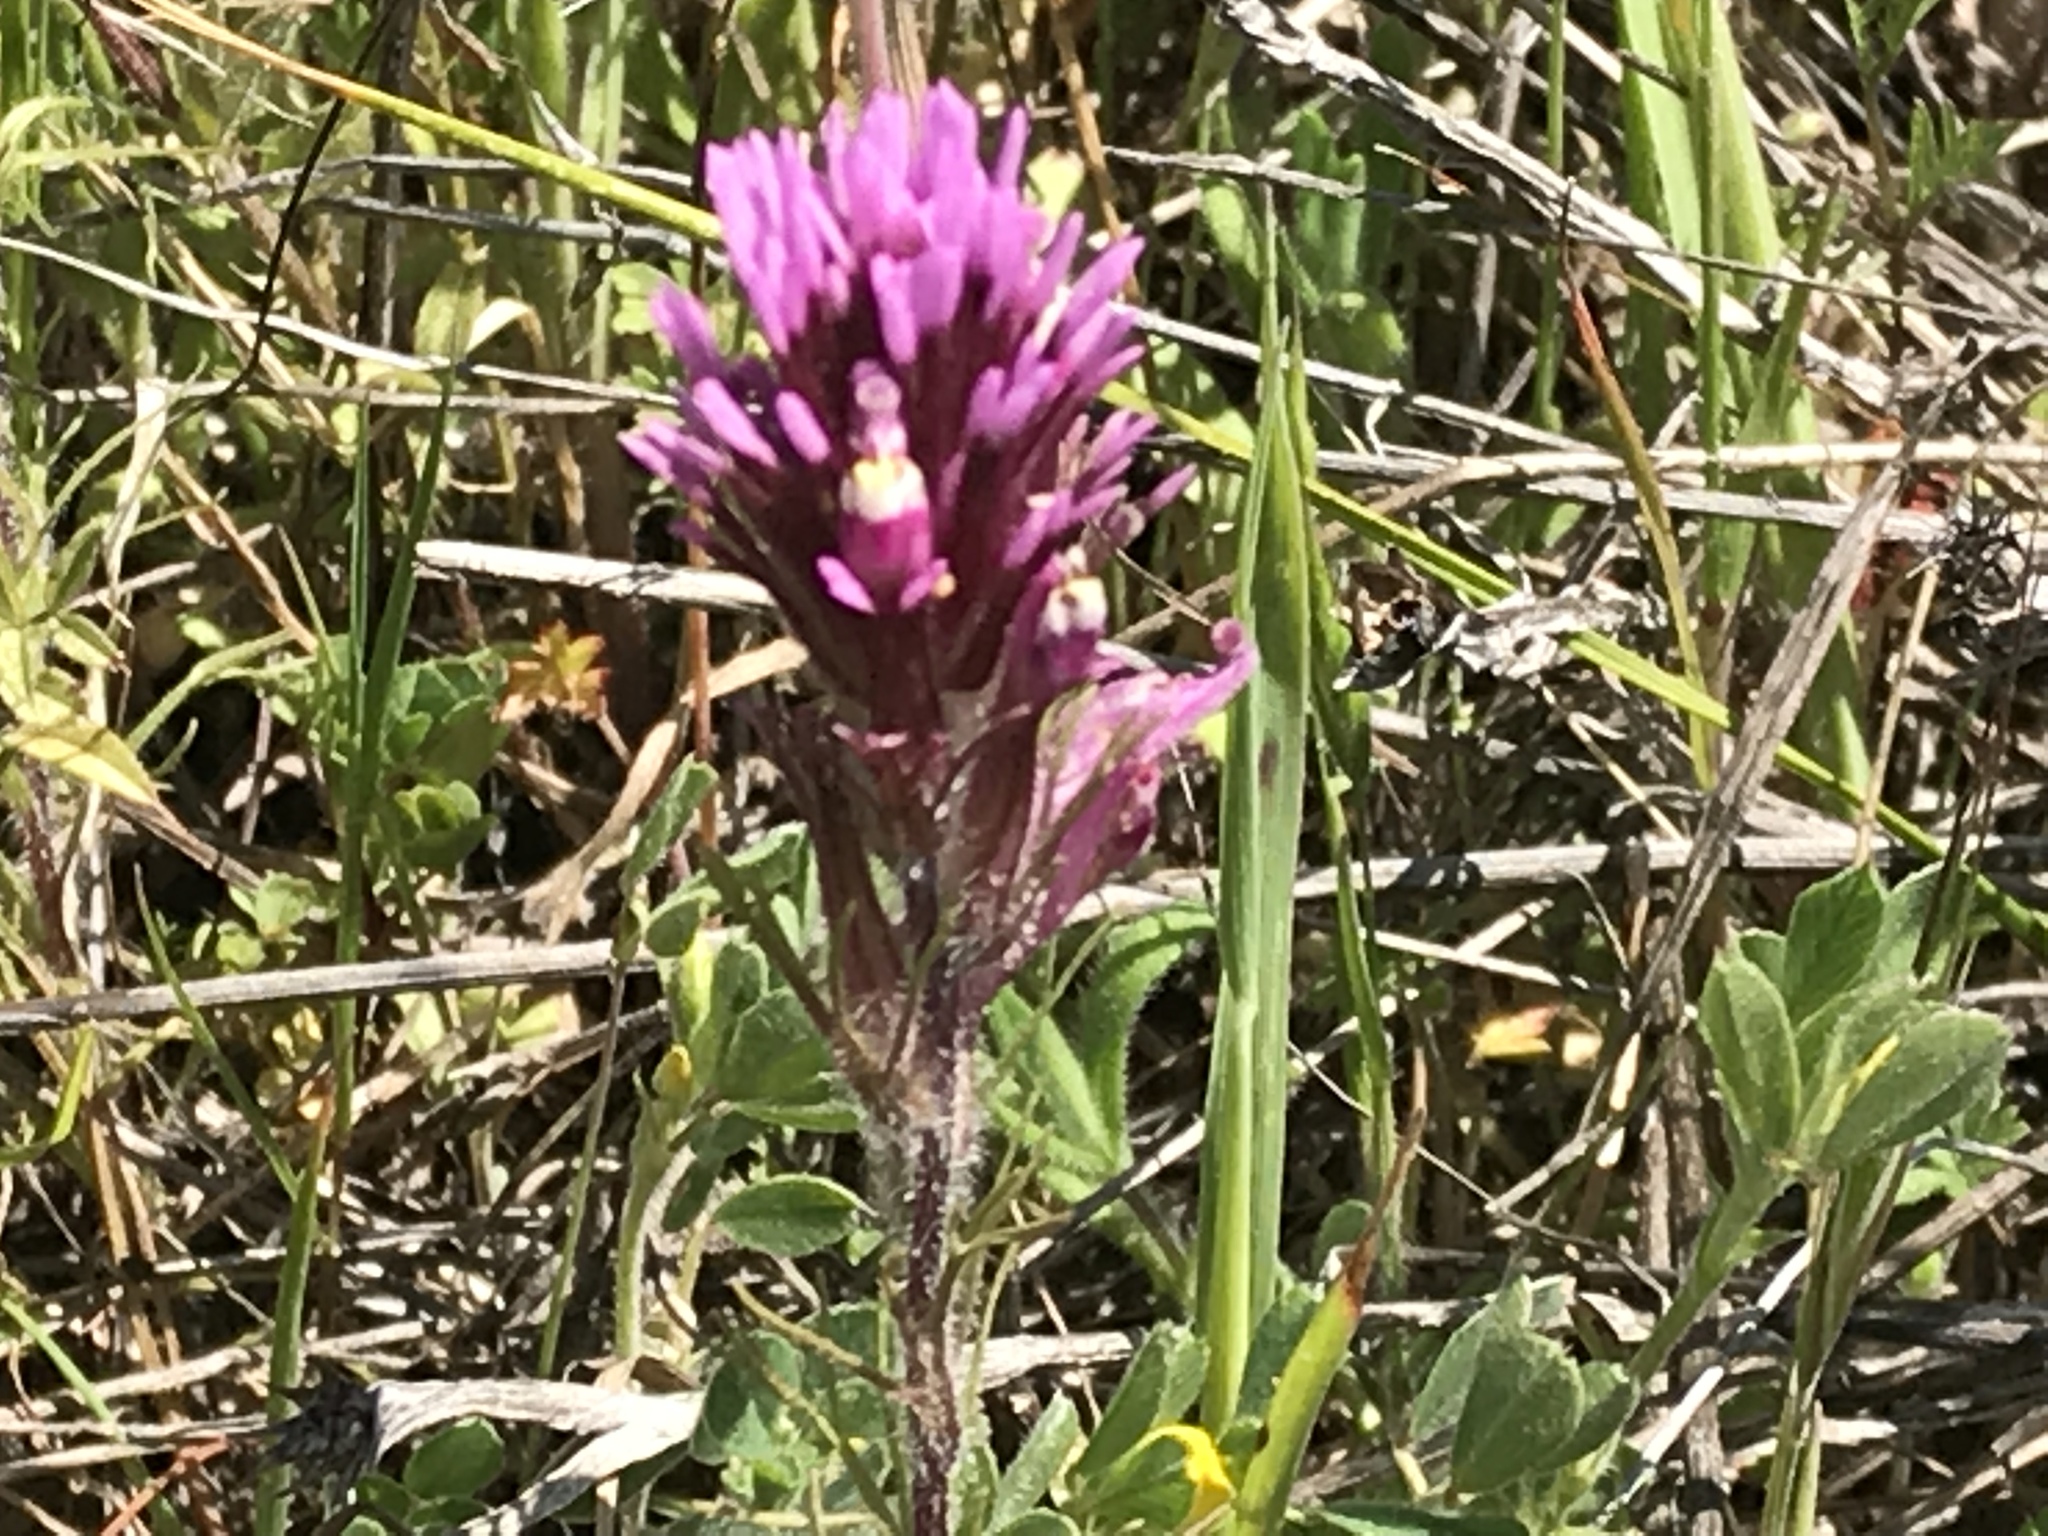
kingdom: Plantae
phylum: Tracheophyta
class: Magnoliopsida
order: Lamiales
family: Orobanchaceae
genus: Castilleja
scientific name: Castilleja exserta
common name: Purple owl-clover
